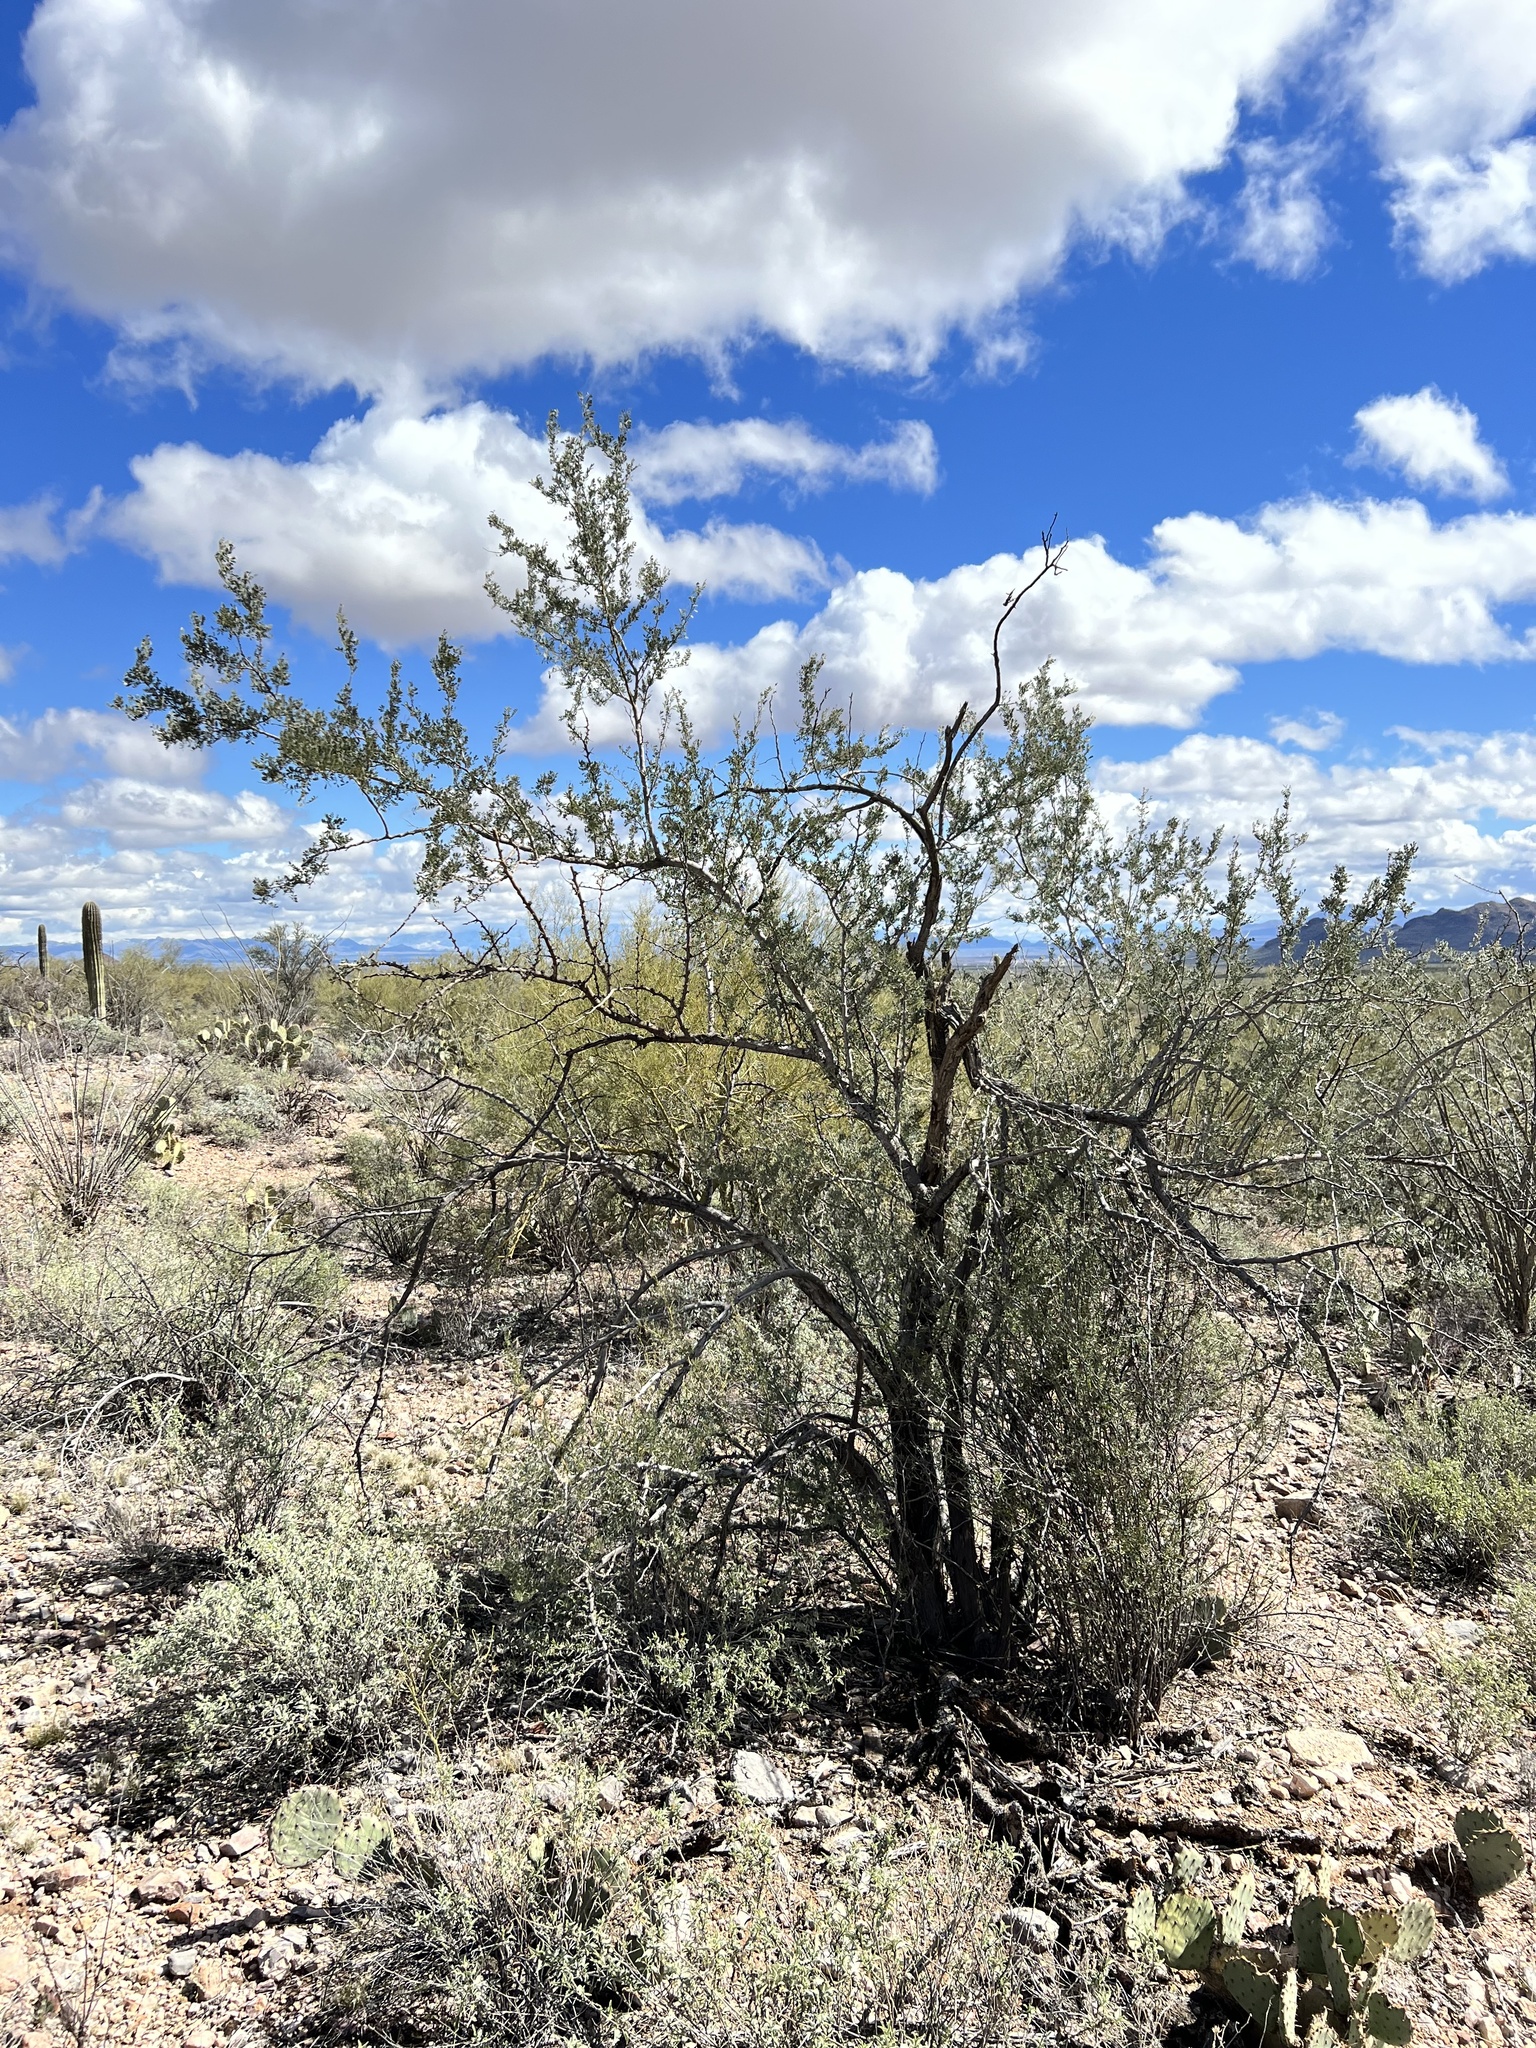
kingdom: Plantae
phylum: Tracheophyta
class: Magnoliopsida
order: Fabales
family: Fabaceae
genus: Olneya
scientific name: Olneya tesota
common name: Desert ironwood
